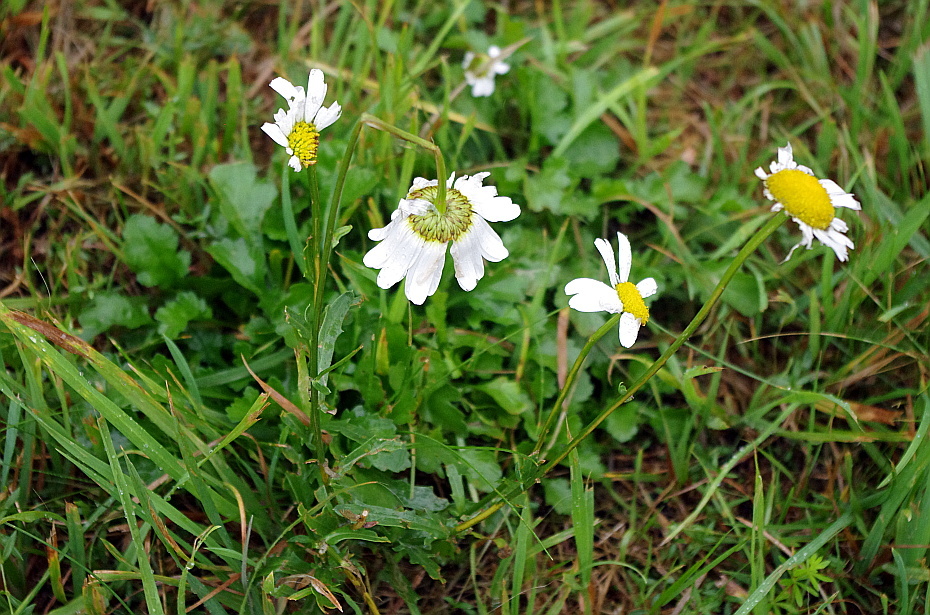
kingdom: Plantae
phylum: Tracheophyta
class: Magnoliopsida
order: Asterales
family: Asteraceae
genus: Leucanthemum
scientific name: Leucanthemum vulgare
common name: Oxeye daisy
